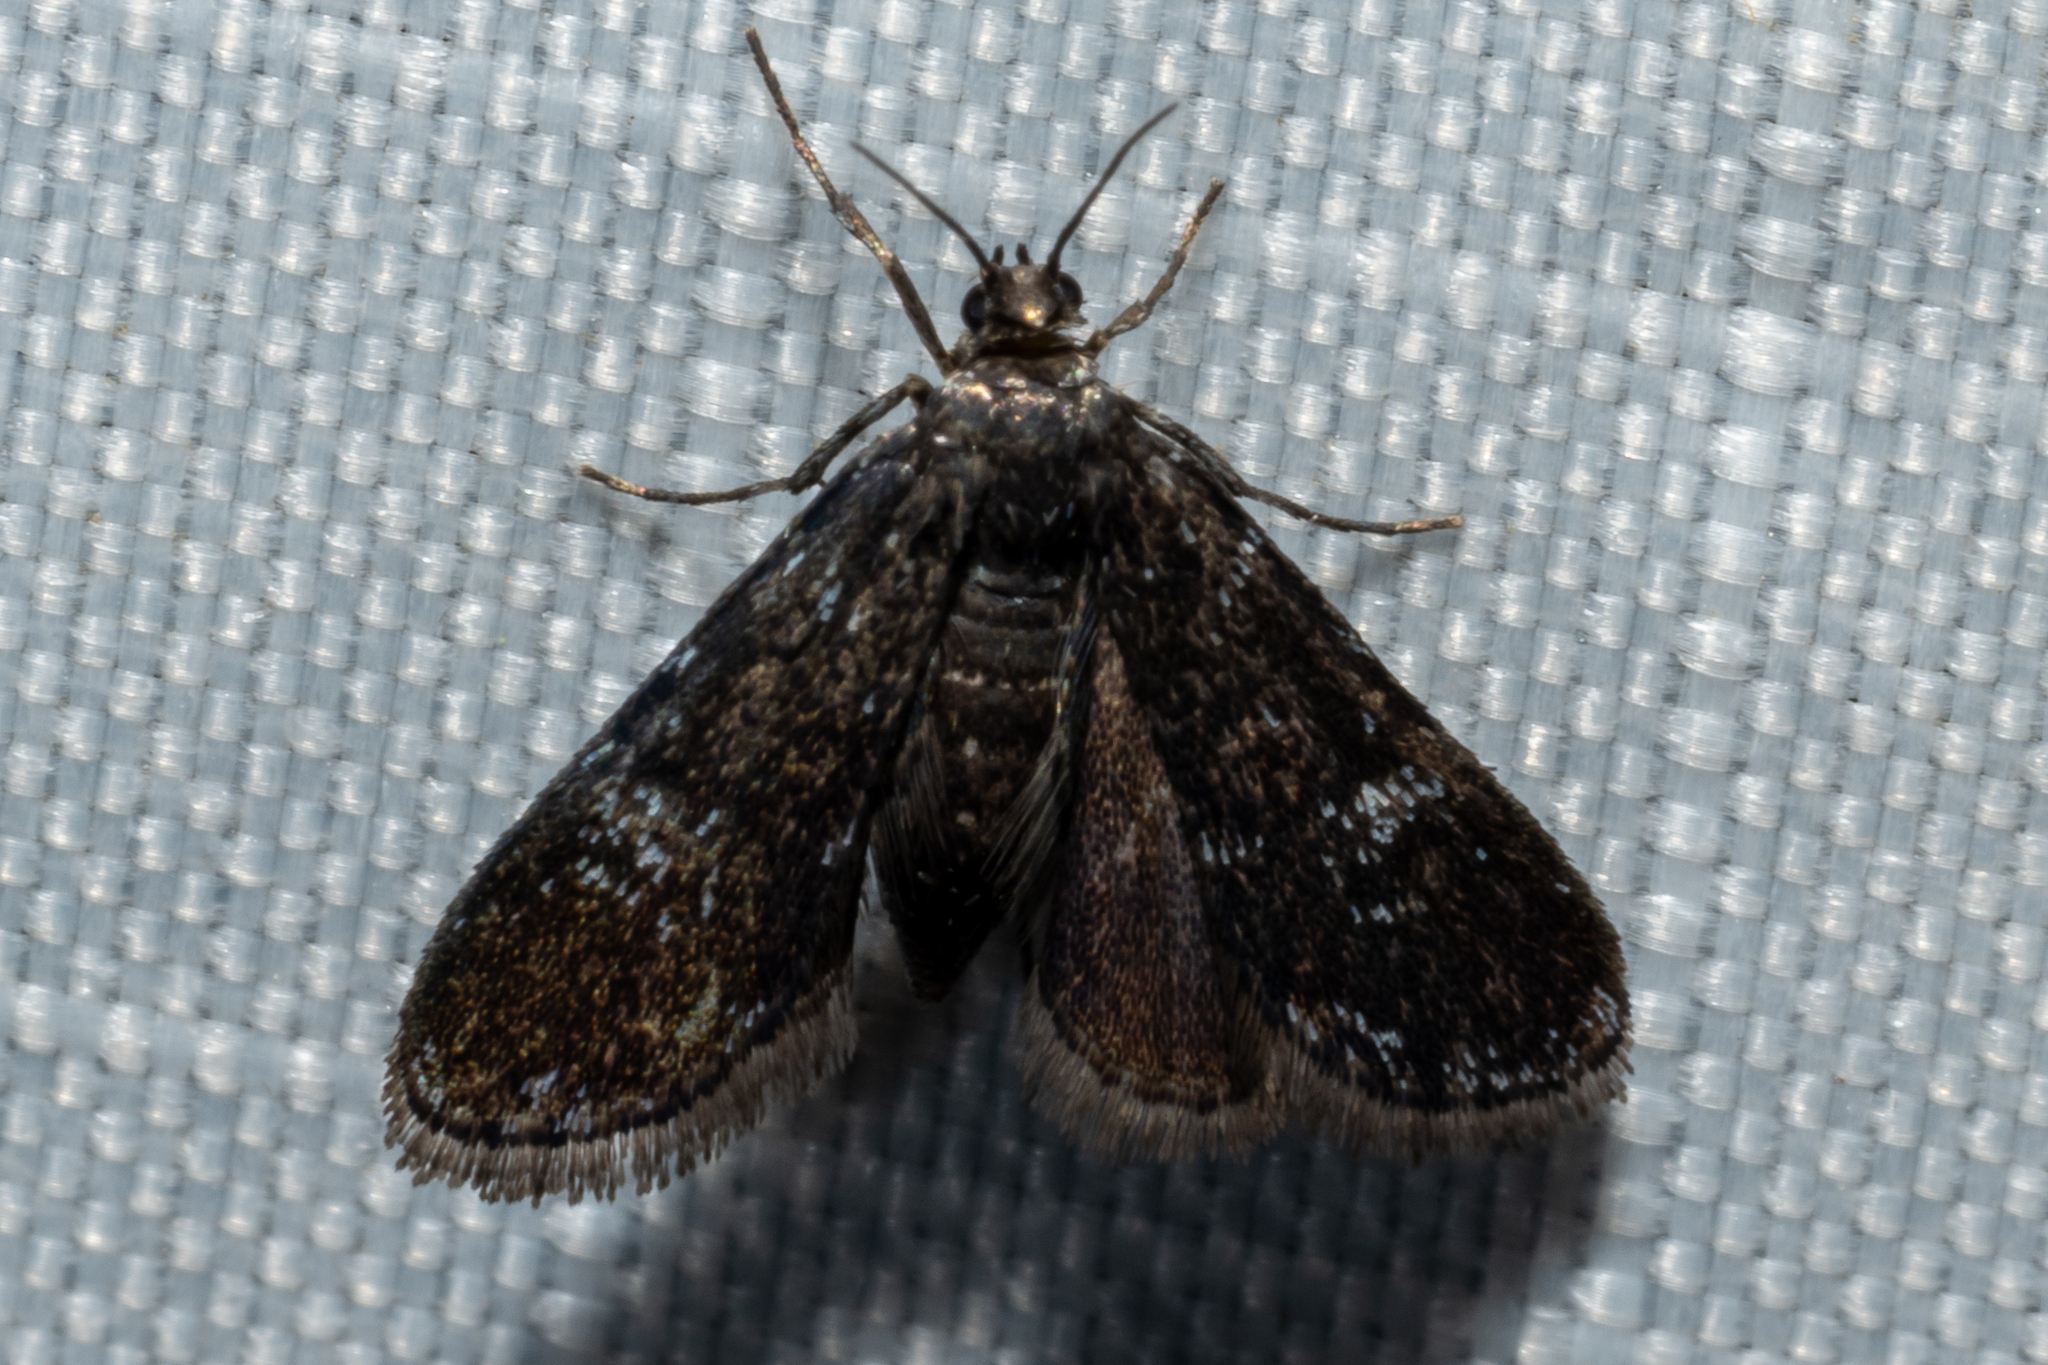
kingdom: Animalia
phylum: Arthropoda
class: Insecta
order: Lepidoptera
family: Crambidae
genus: Elophila
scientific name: Elophila tinealis
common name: Black duckweed moth
